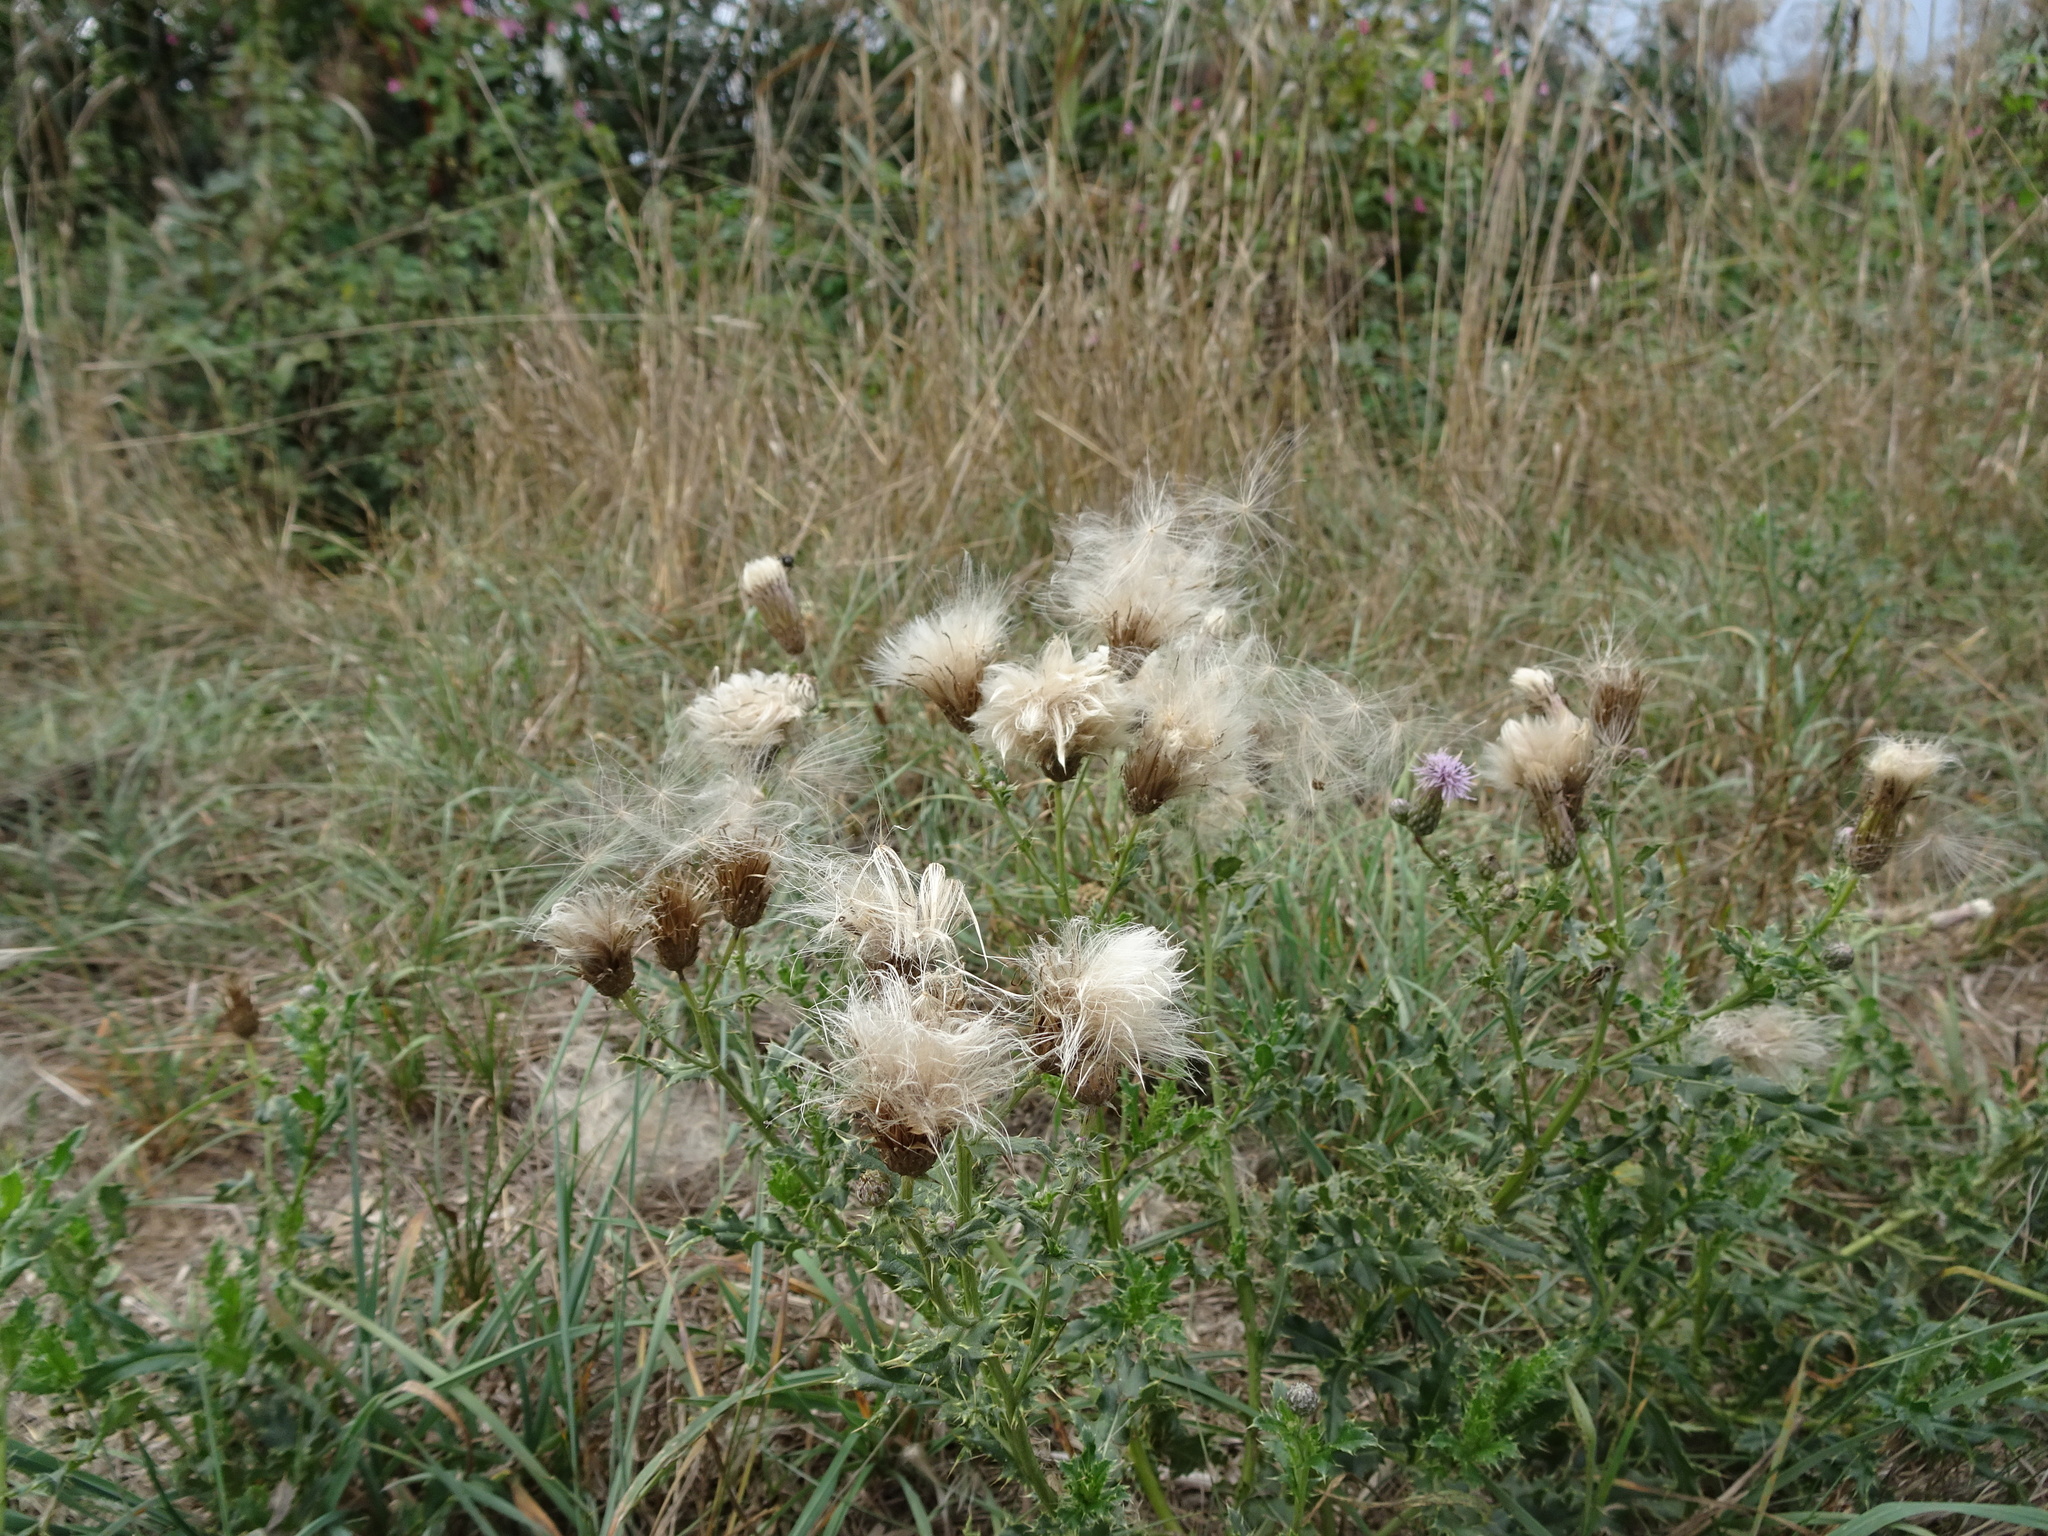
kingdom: Plantae
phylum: Tracheophyta
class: Magnoliopsida
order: Asterales
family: Asteraceae
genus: Cirsium
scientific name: Cirsium arvense
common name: Creeping thistle
